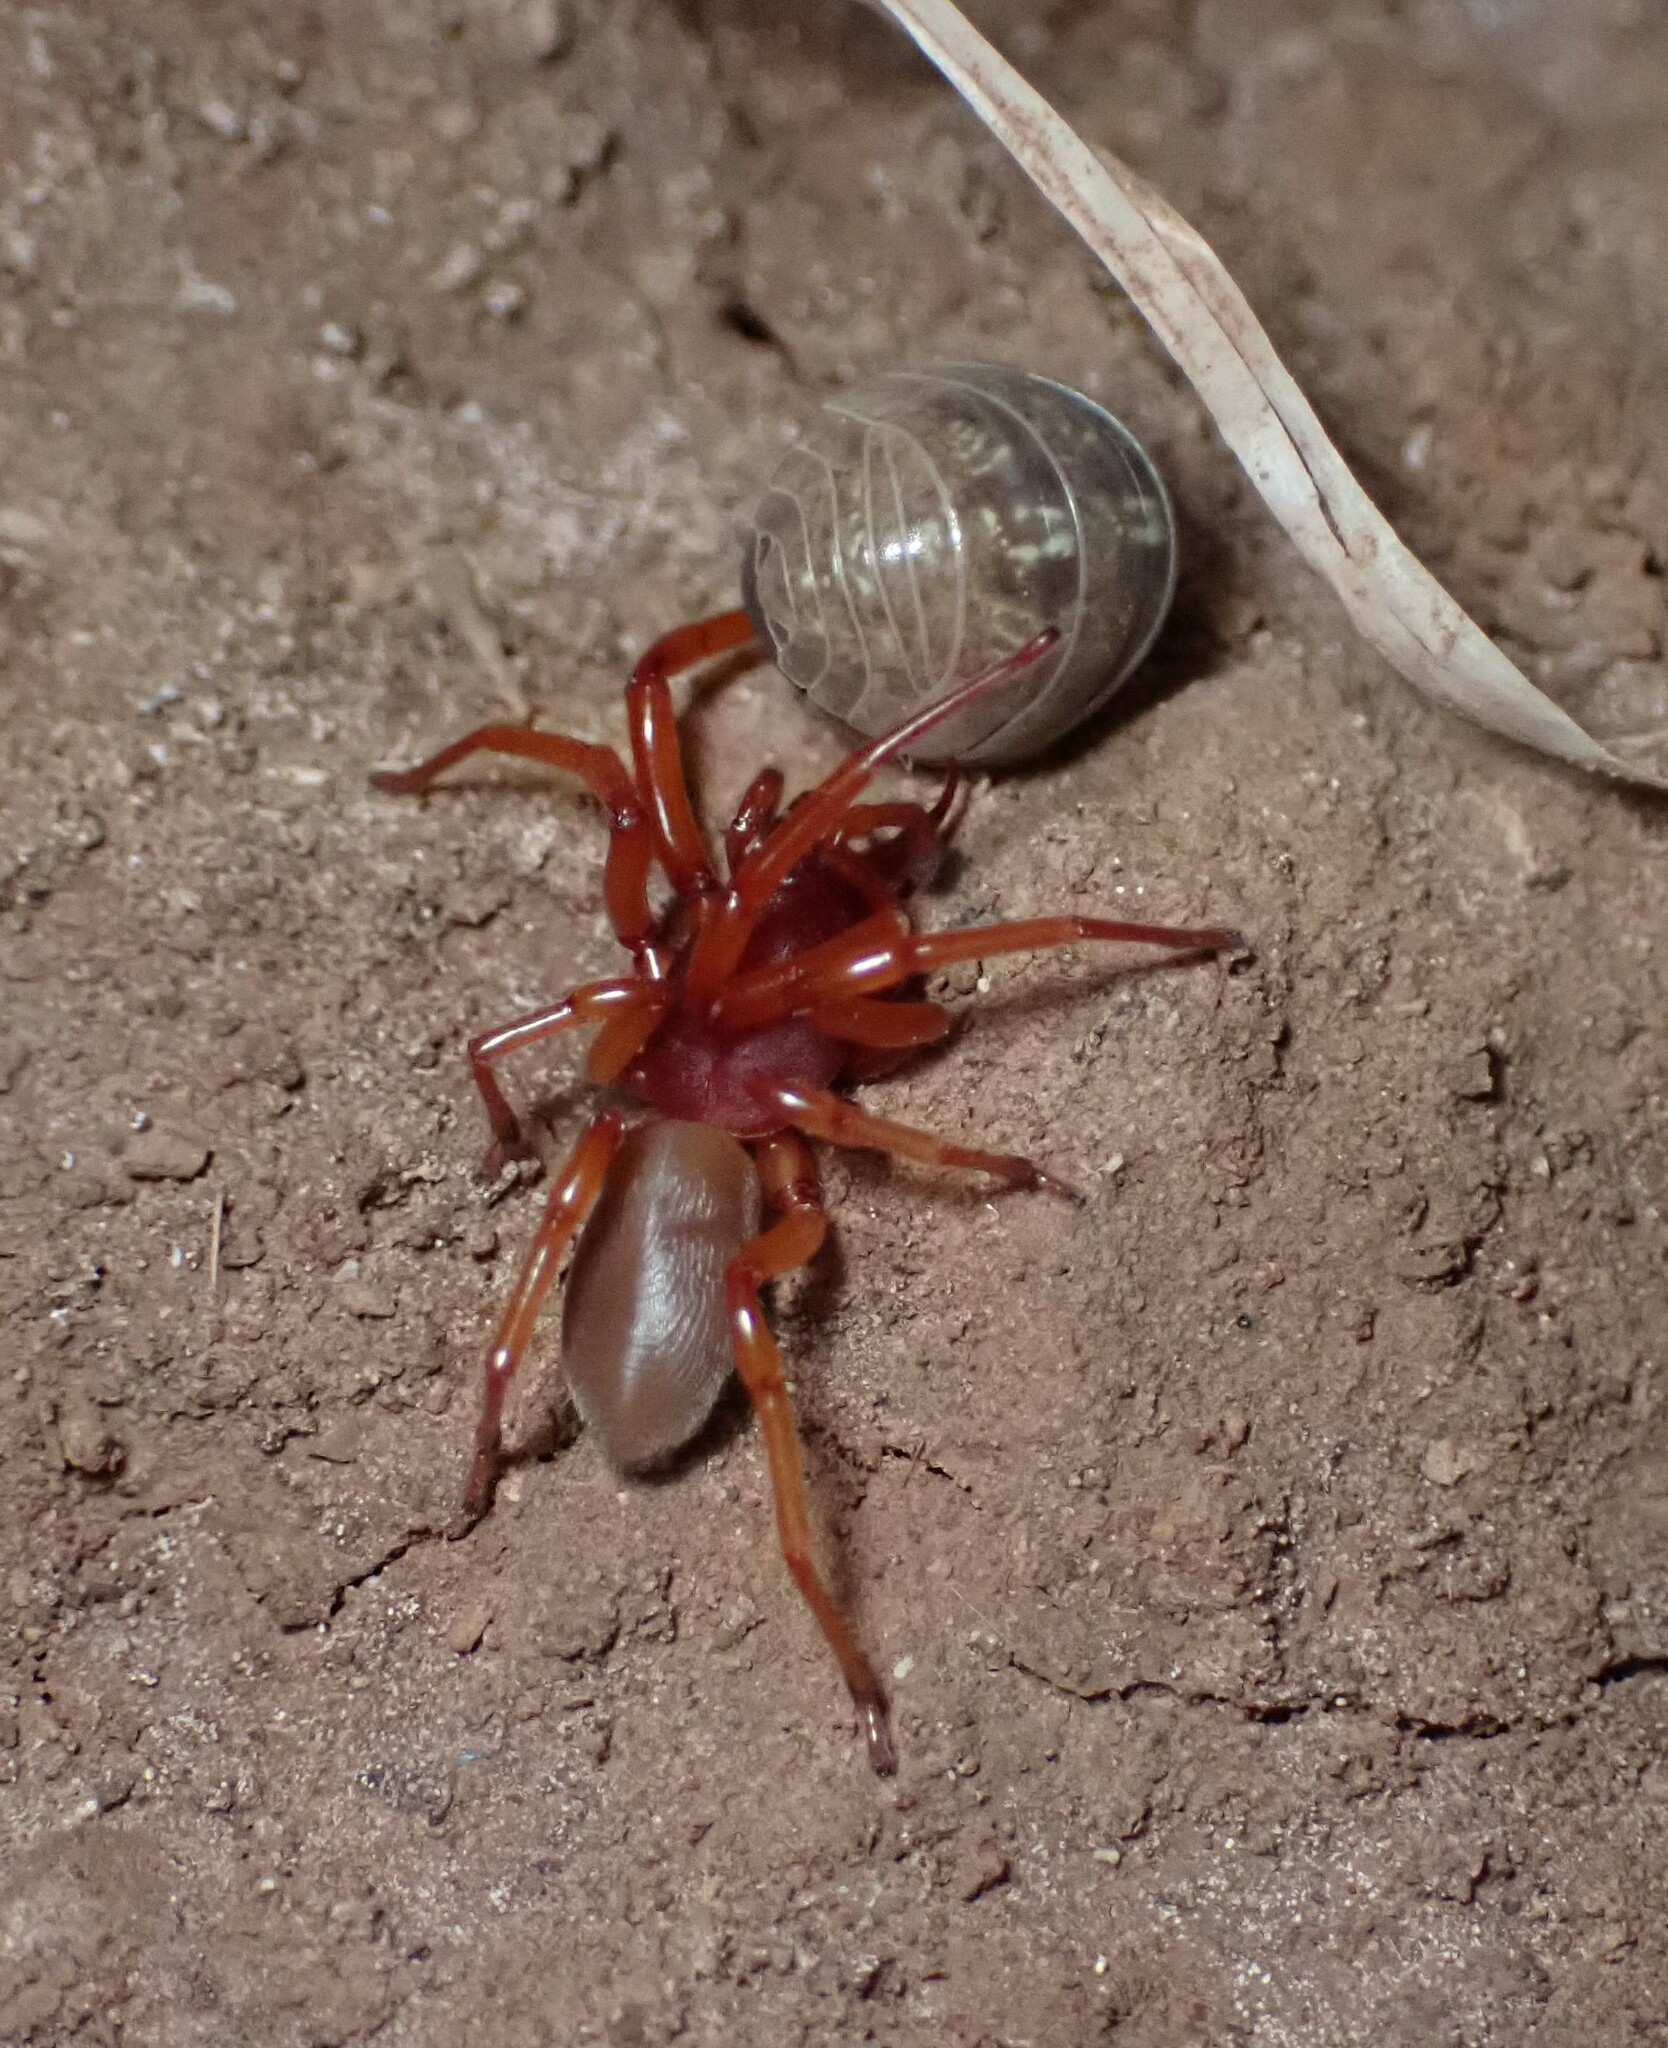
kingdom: Animalia
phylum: Arthropoda
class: Arachnida
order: Araneae
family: Dysderidae
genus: Dysdera
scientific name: Dysdera
